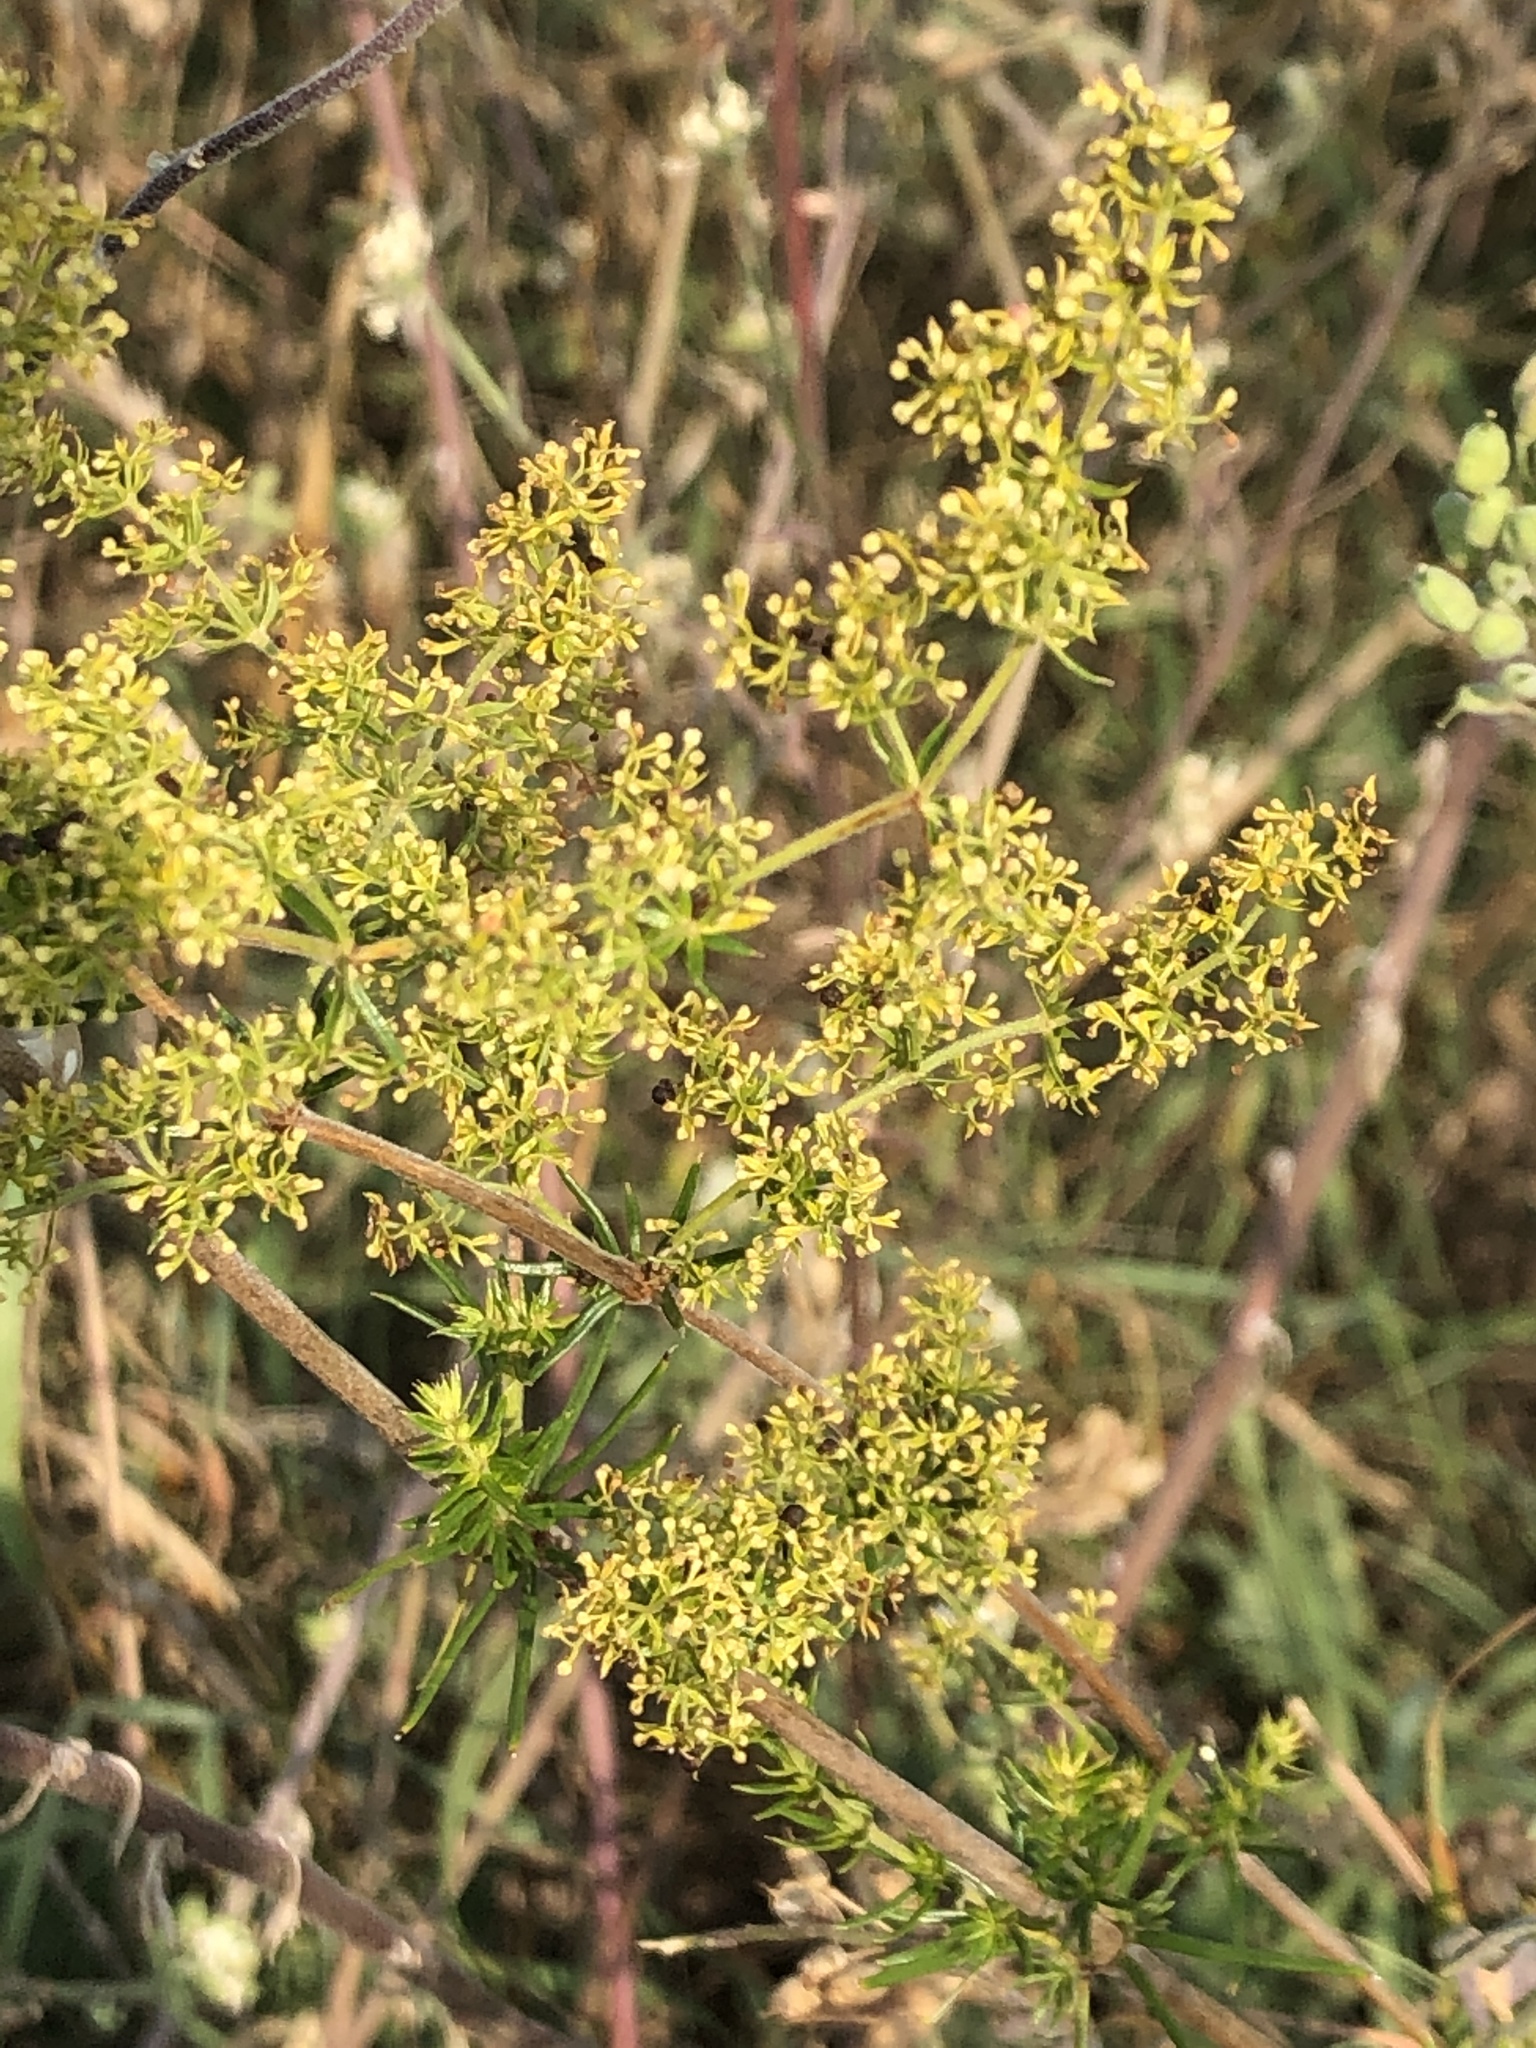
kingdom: Plantae
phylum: Tracheophyta
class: Magnoliopsida
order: Gentianales
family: Rubiaceae
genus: Galium
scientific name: Galium verum
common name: Lady's bedstraw
